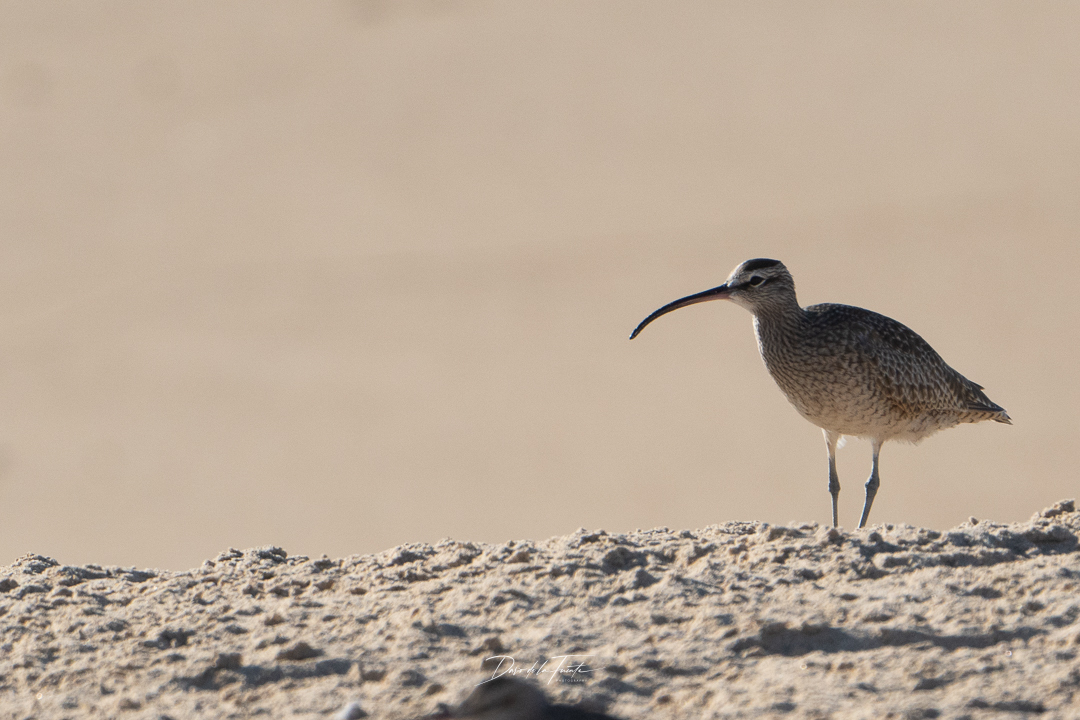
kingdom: Animalia
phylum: Chordata
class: Aves
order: Charadriiformes
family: Scolopacidae
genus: Numenius
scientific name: Numenius phaeopus
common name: Whimbrel
